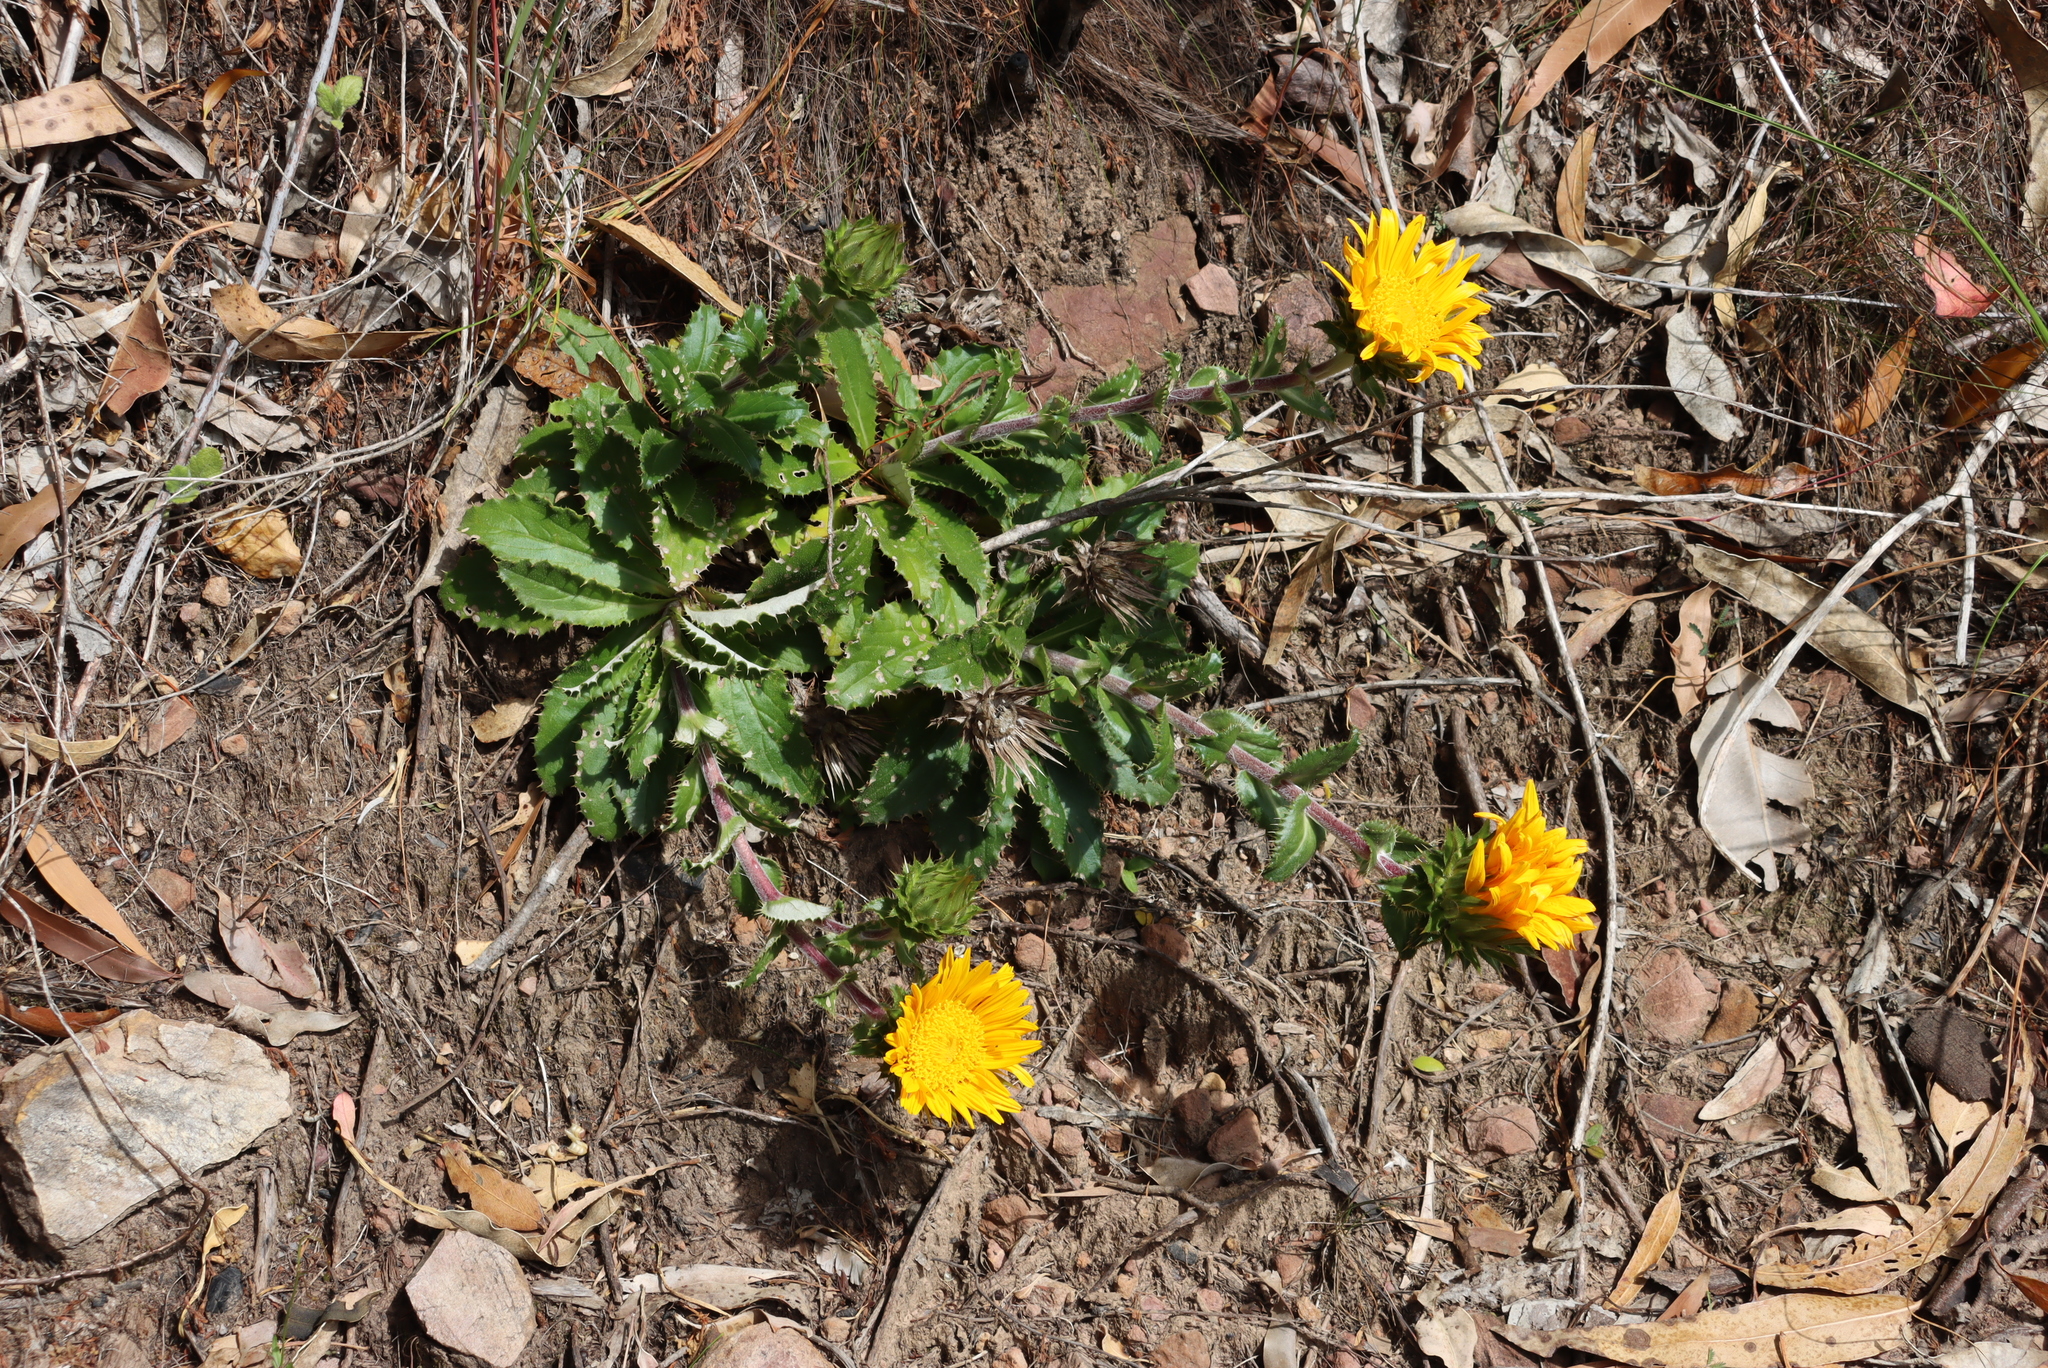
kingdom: Plantae
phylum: Tracheophyta
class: Magnoliopsida
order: Asterales
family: Asteraceae
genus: Berkheya
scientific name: Berkheya armata
